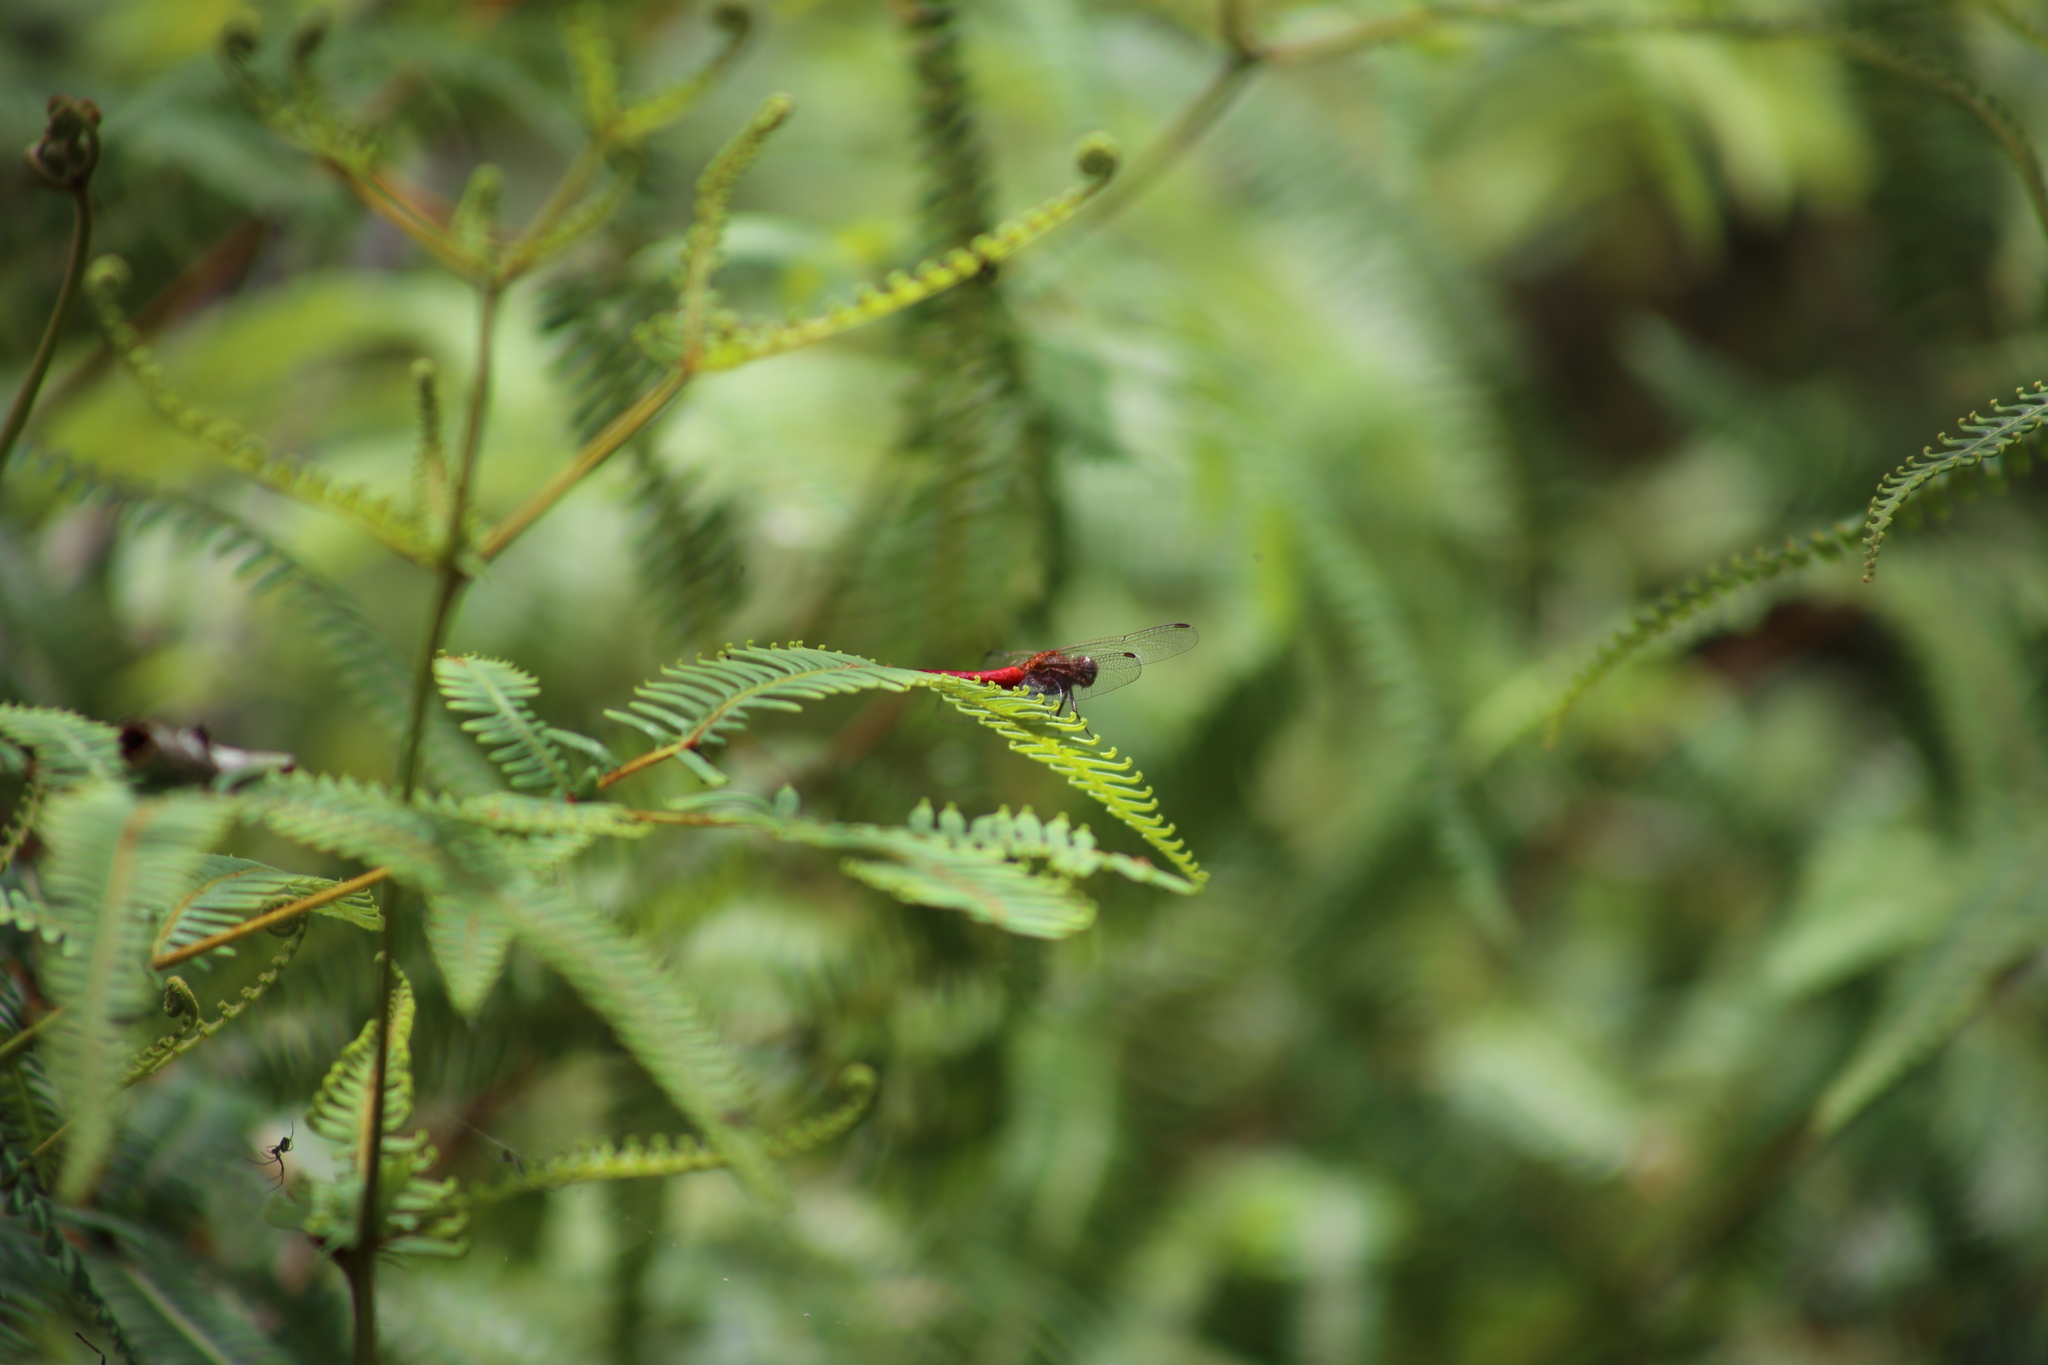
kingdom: Animalia
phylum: Arthropoda
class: Insecta
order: Odonata
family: Libellulidae
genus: Orthetrum
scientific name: Orthetrum villosovittatum
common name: Firery skimmer
